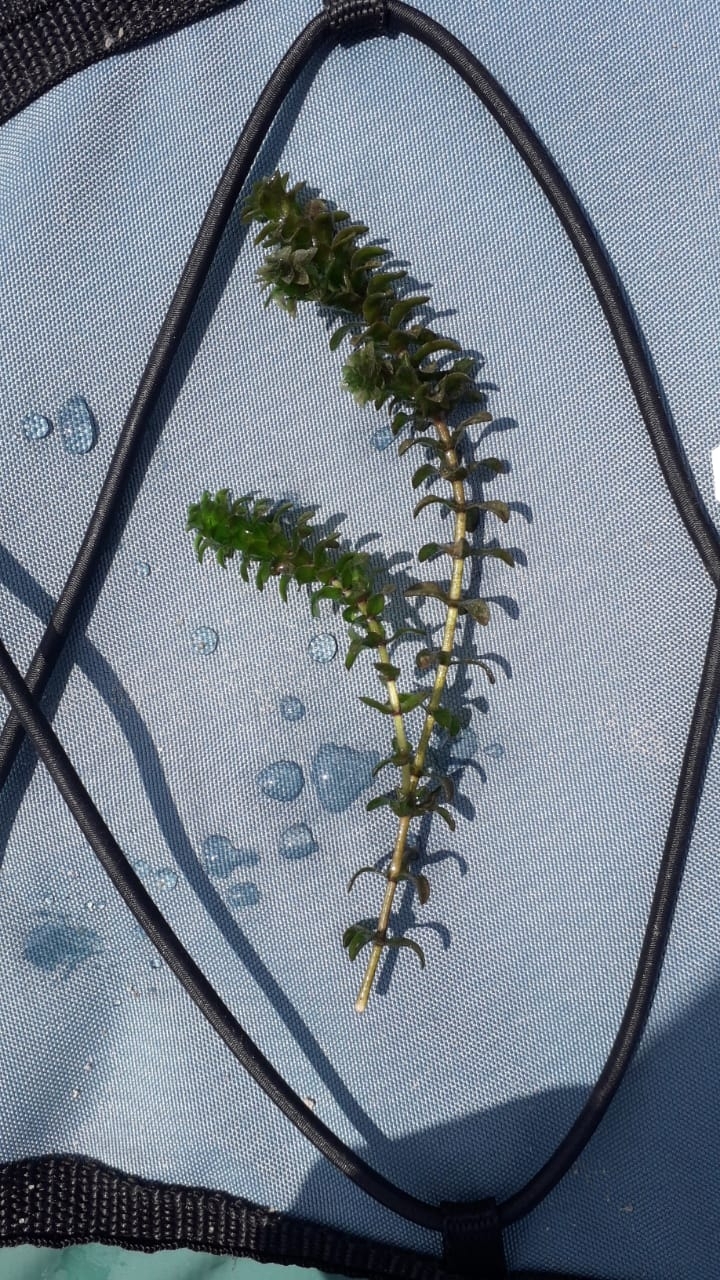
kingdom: Plantae
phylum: Tracheophyta
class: Liliopsida
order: Alismatales
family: Hydrocharitaceae
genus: Elodea
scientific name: Elodea canadensis
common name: Canadian waterweed
